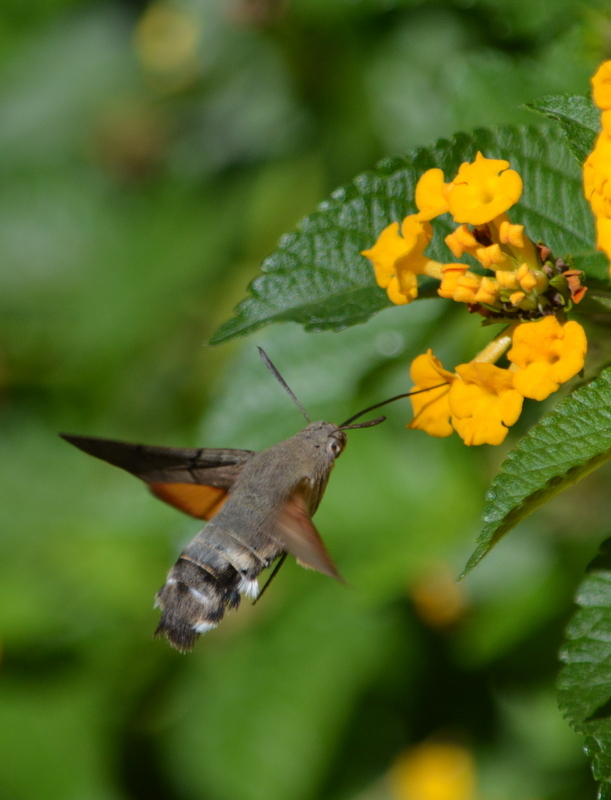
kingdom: Animalia
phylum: Arthropoda
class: Insecta
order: Lepidoptera
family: Sphingidae
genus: Macroglossum
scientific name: Macroglossum stellatarum
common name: Humming-bird hawk-moth
